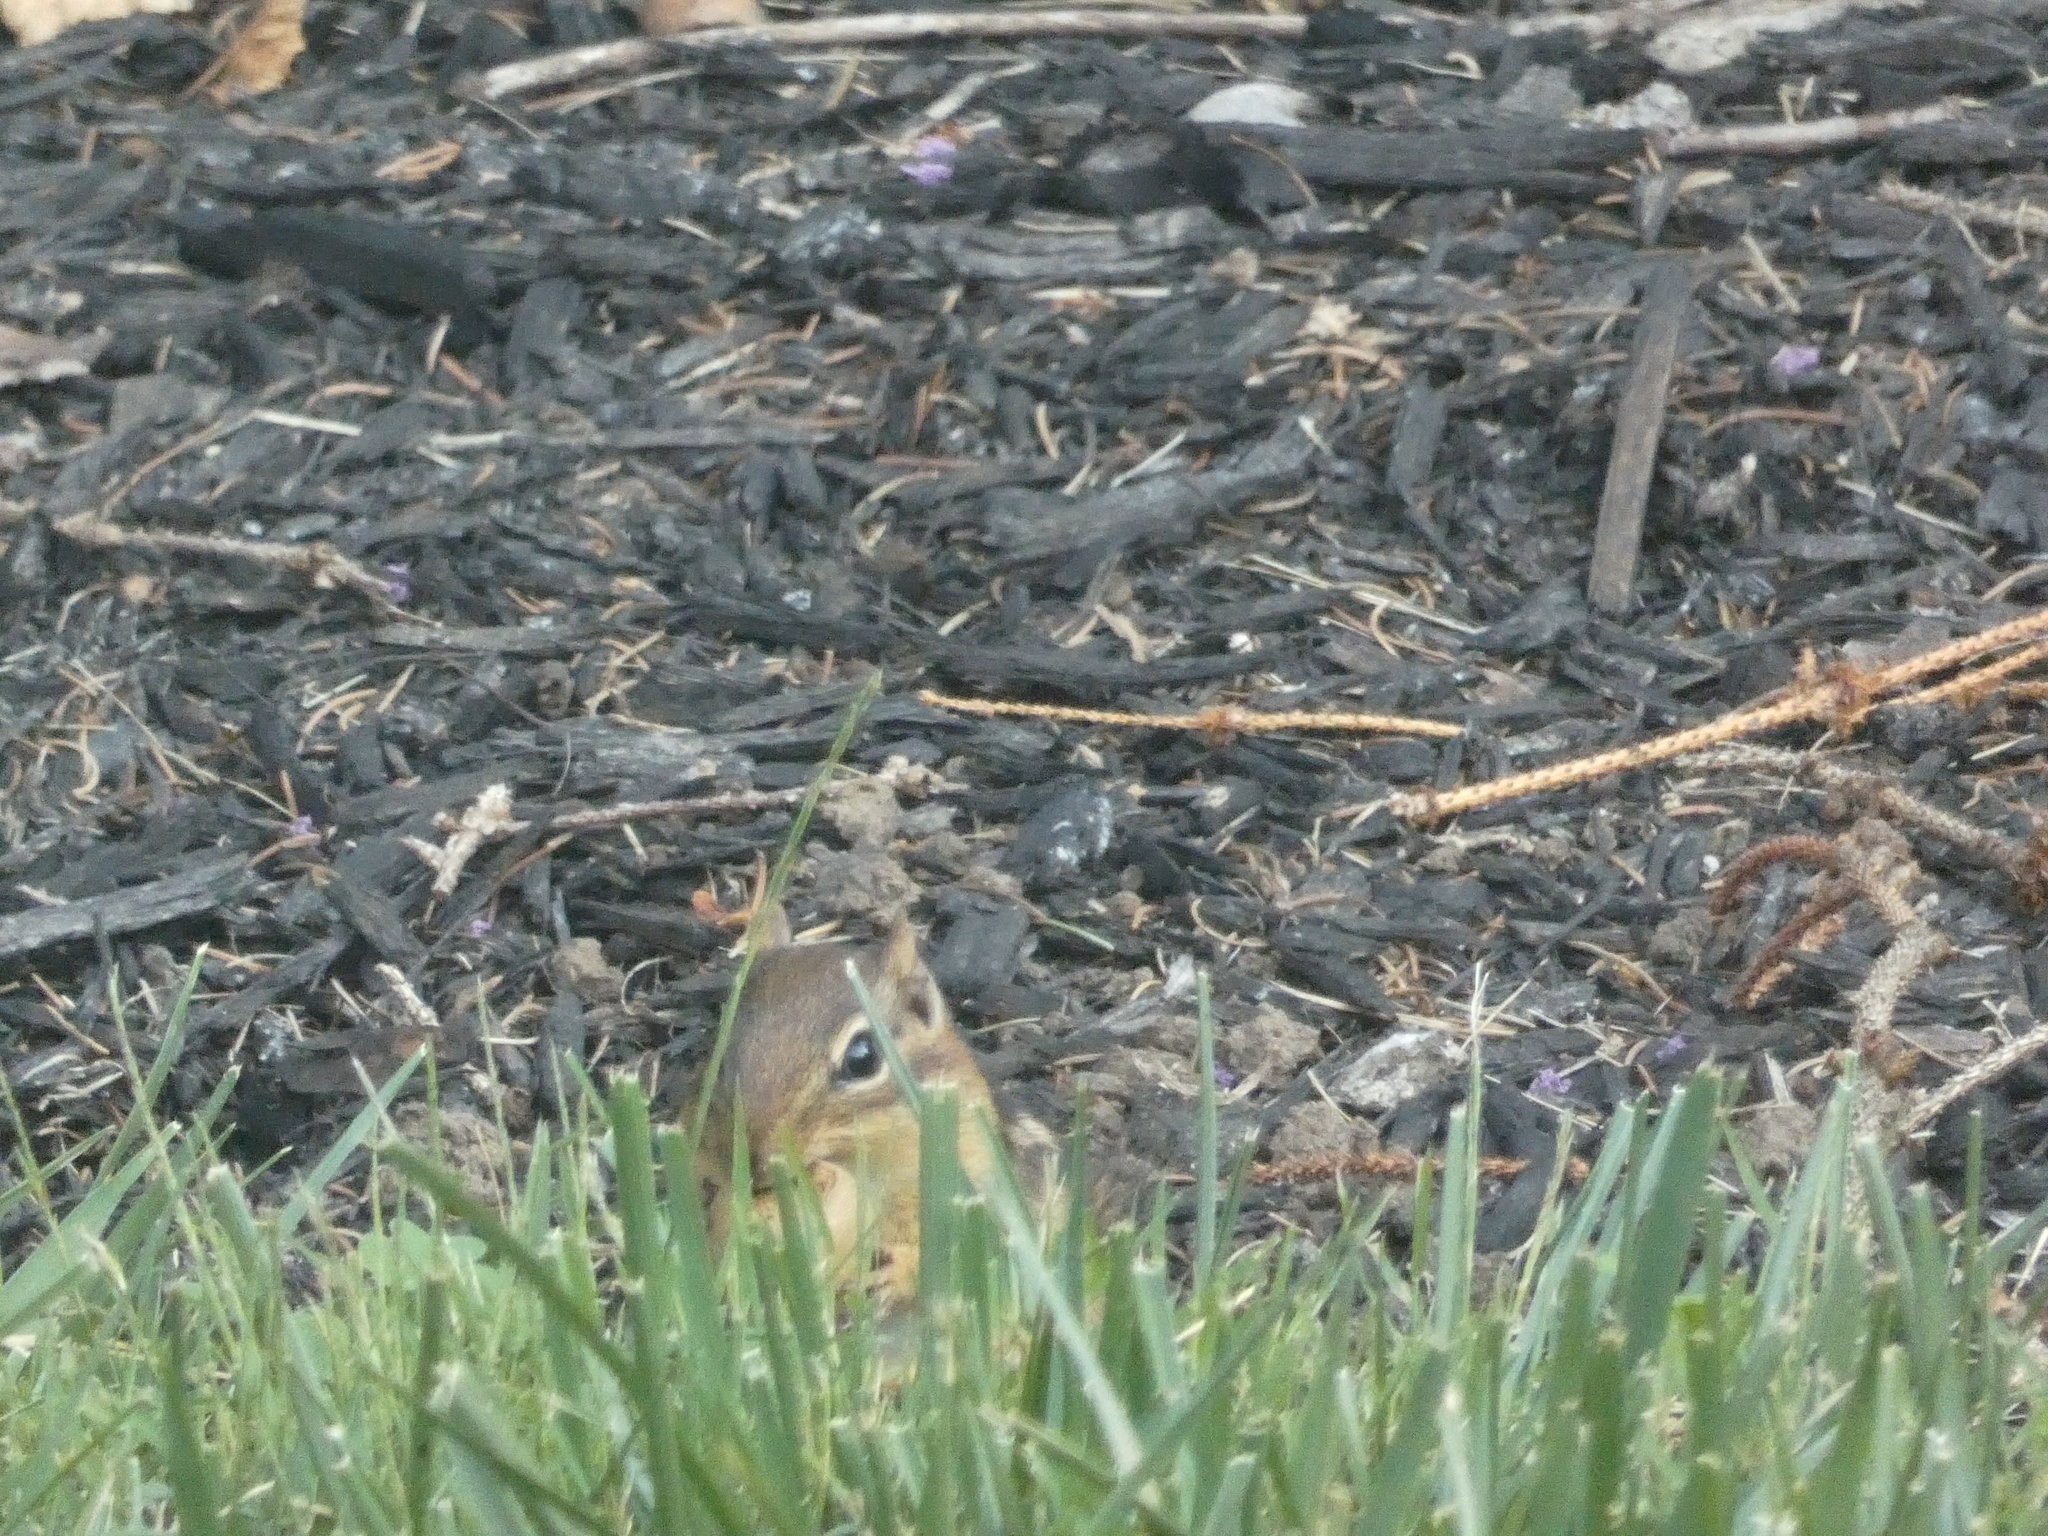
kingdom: Animalia
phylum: Chordata
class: Mammalia
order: Rodentia
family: Sciuridae
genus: Tamias
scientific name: Tamias striatus
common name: Eastern chipmunk
